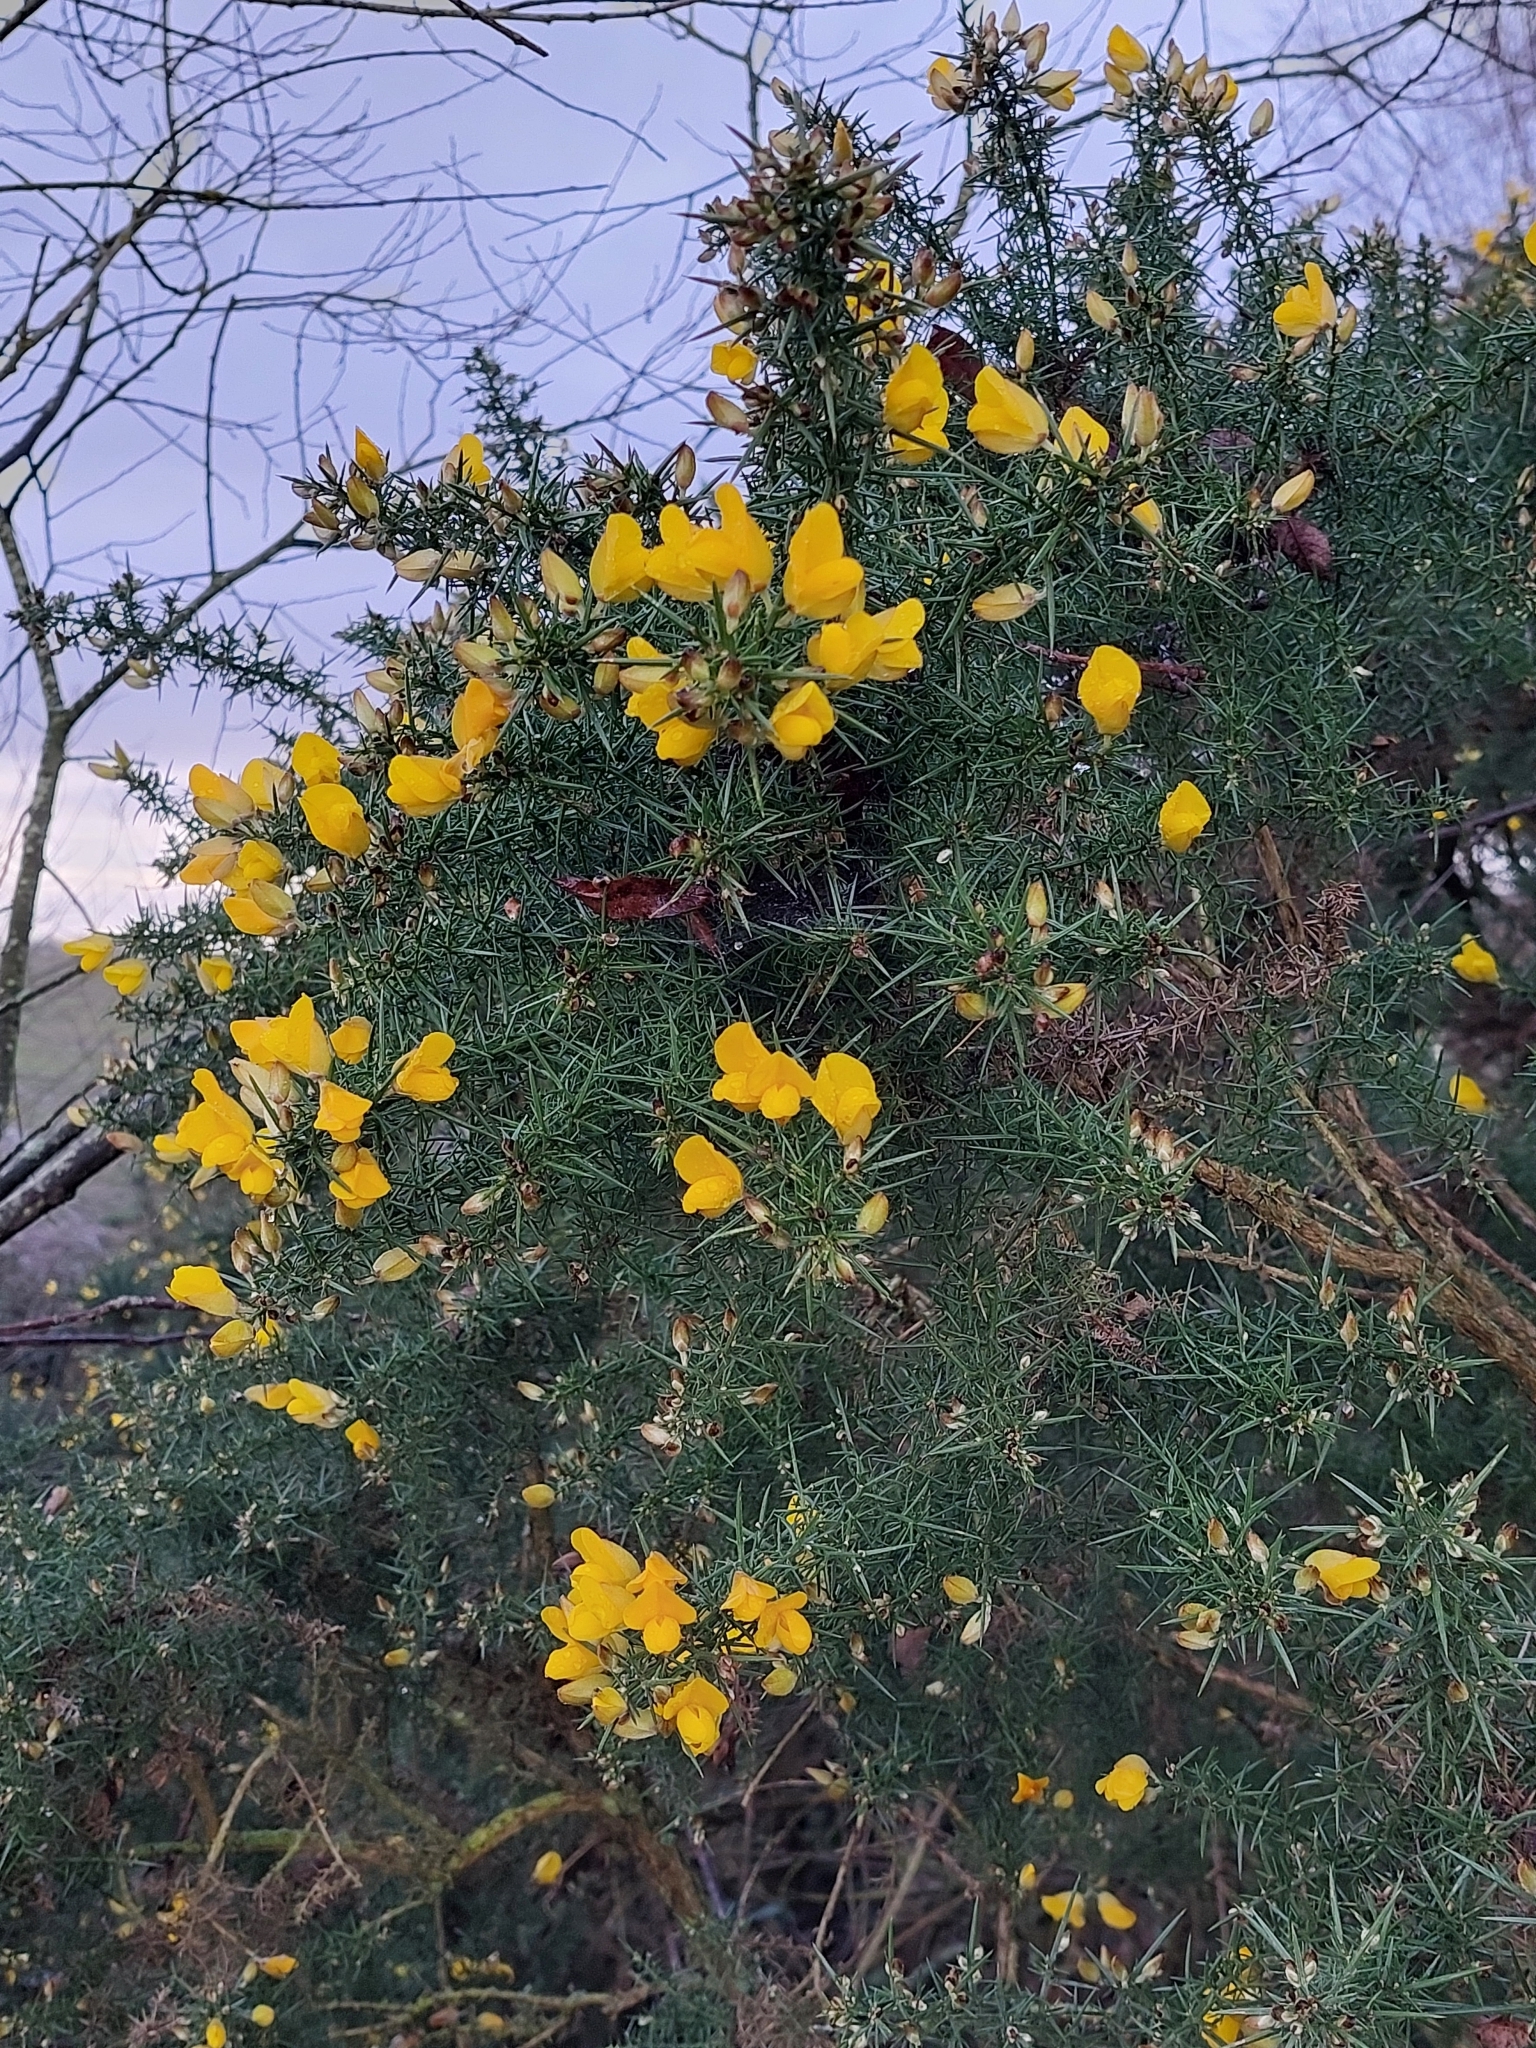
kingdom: Plantae
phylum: Tracheophyta
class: Magnoliopsida
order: Fabales
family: Fabaceae
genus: Ulex
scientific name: Ulex europaeus
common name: Common gorse
